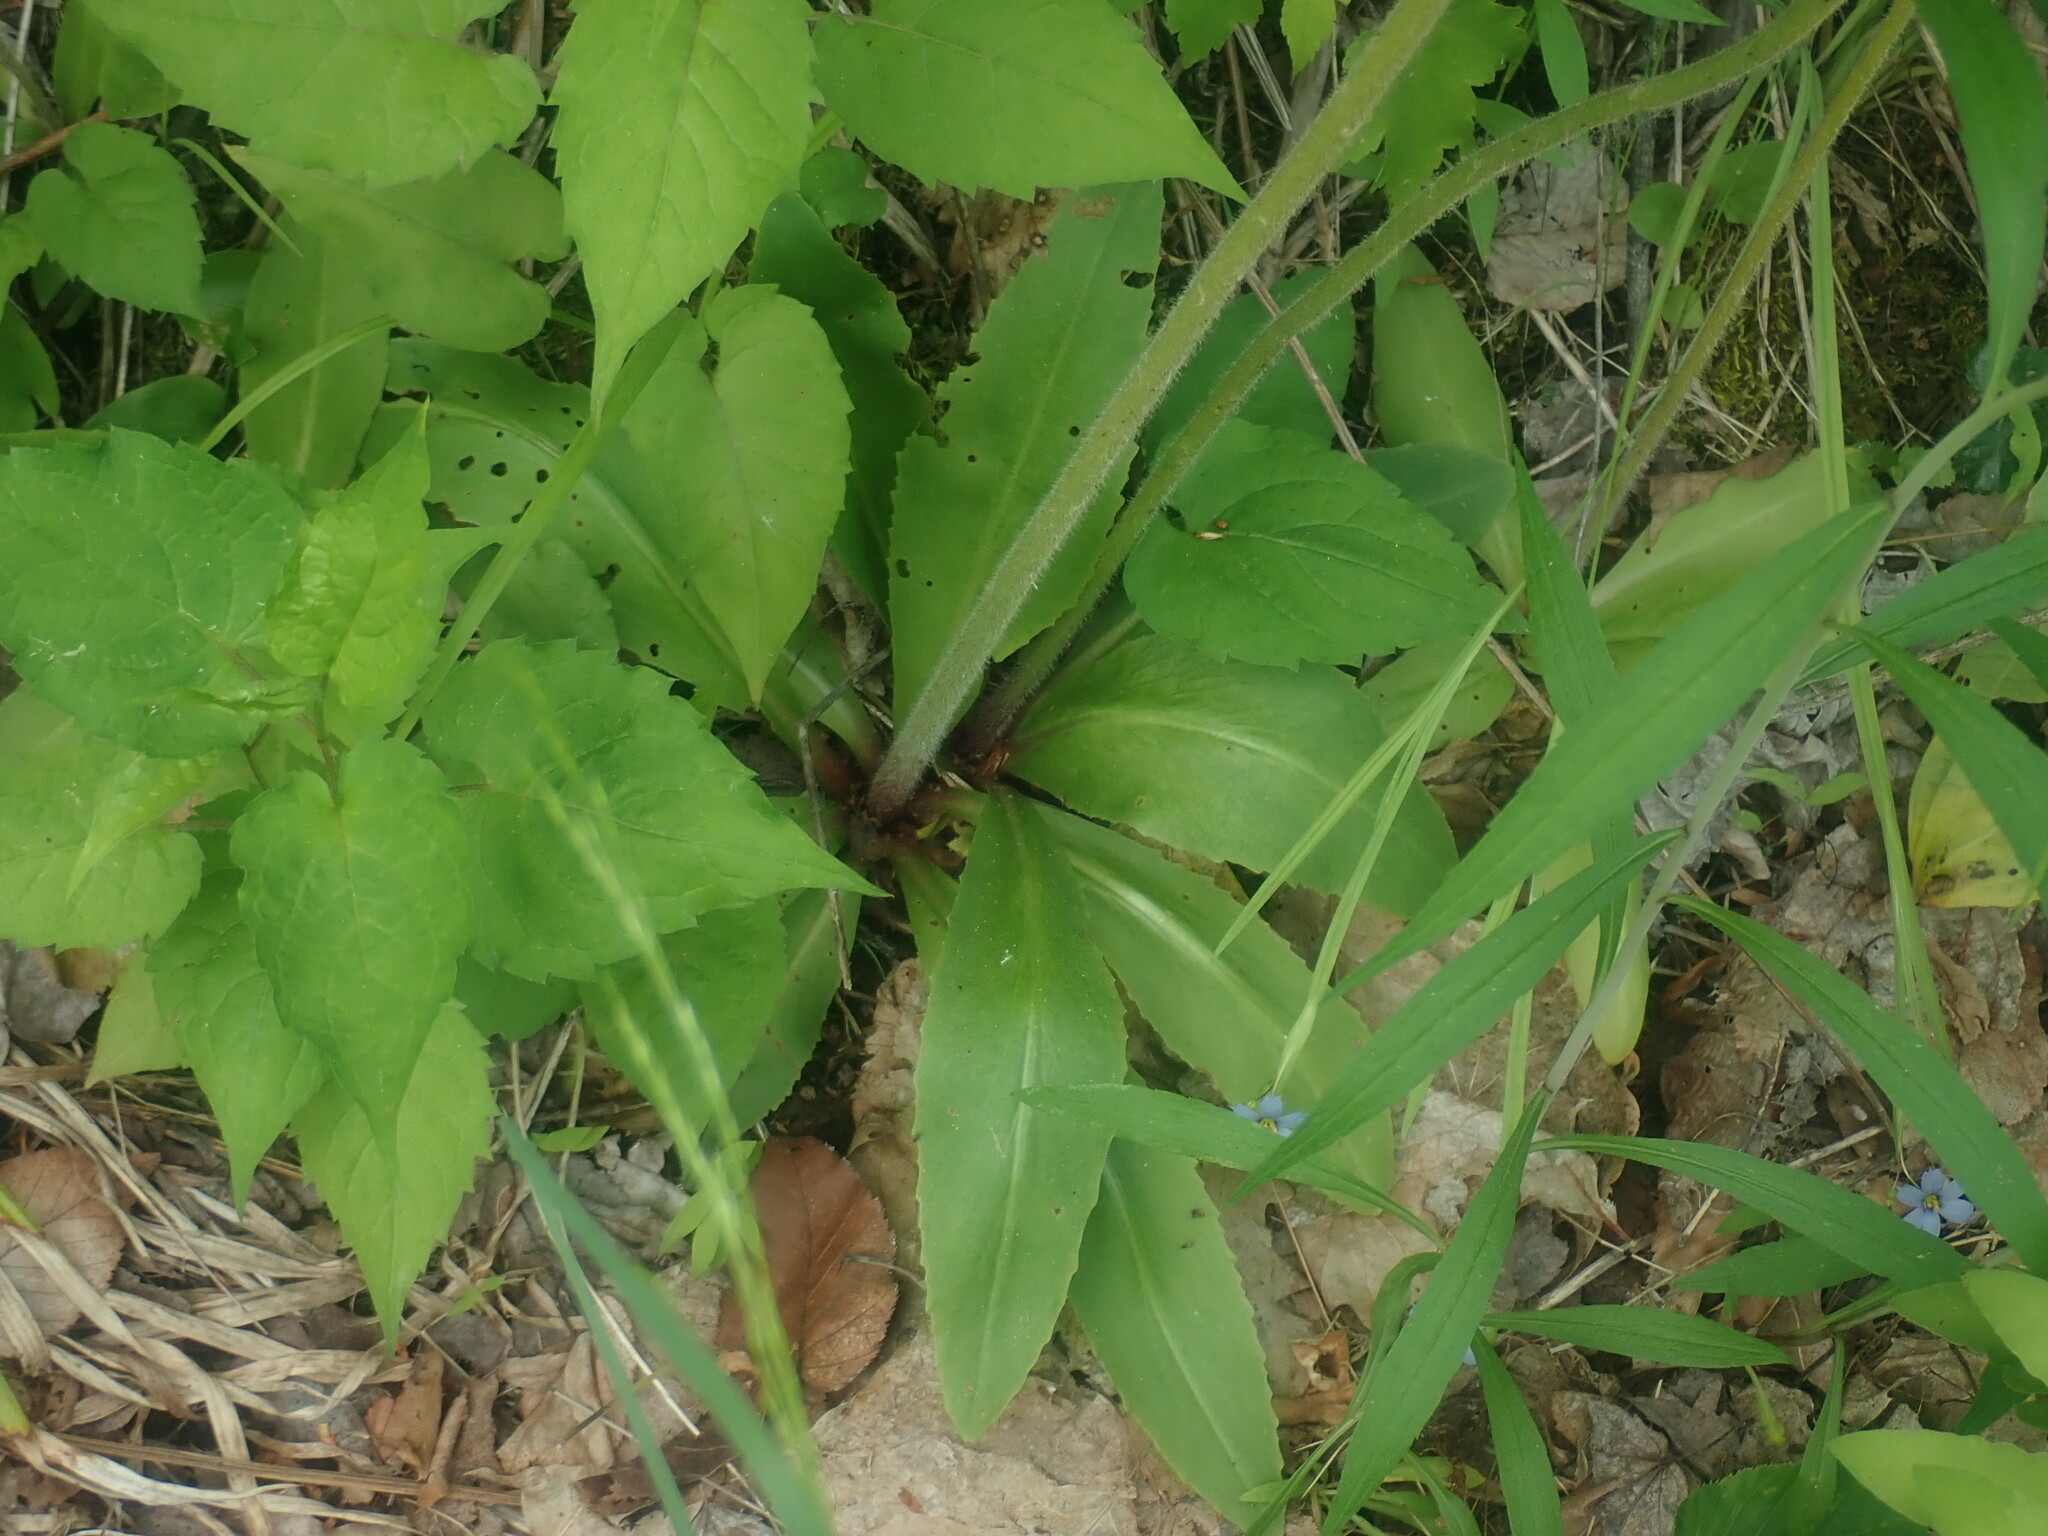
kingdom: Plantae
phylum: Tracheophyta
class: Magnoliopsida
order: Saxifragales
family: Saxifragaceae
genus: Micranthes
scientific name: Micranthes pensylvanica
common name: Marsh saxifrage
